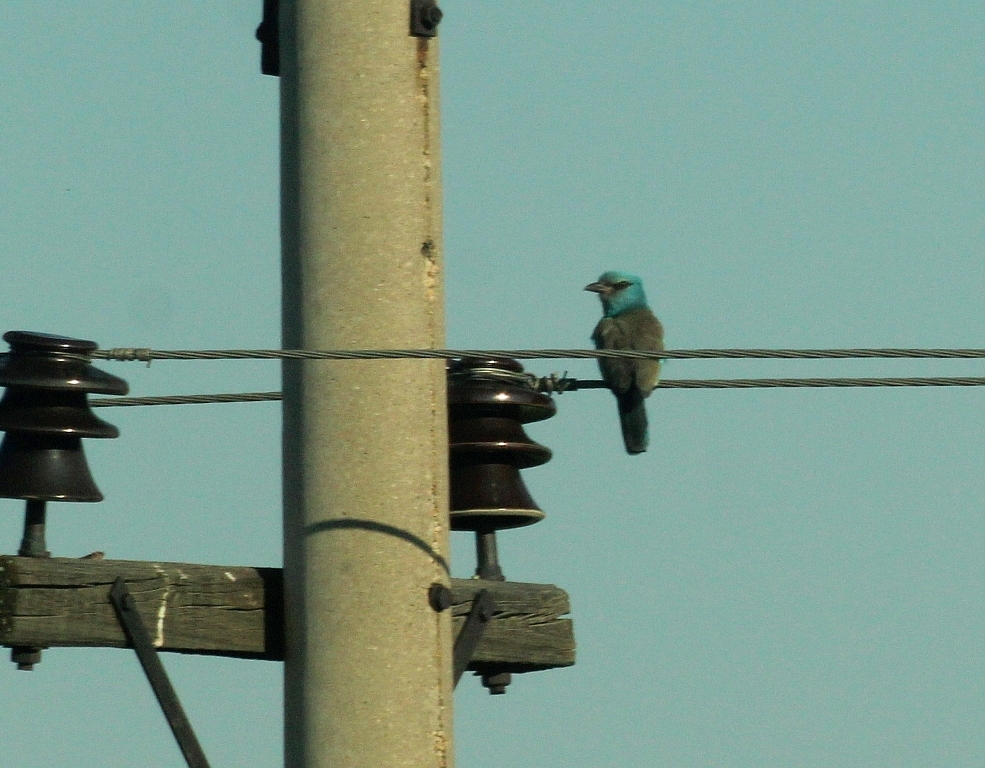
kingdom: Animalia
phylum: Chordata
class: Aves
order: Coraciiformes
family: Coraciidae
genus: Coracias
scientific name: Coracias garrulus
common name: European roller
